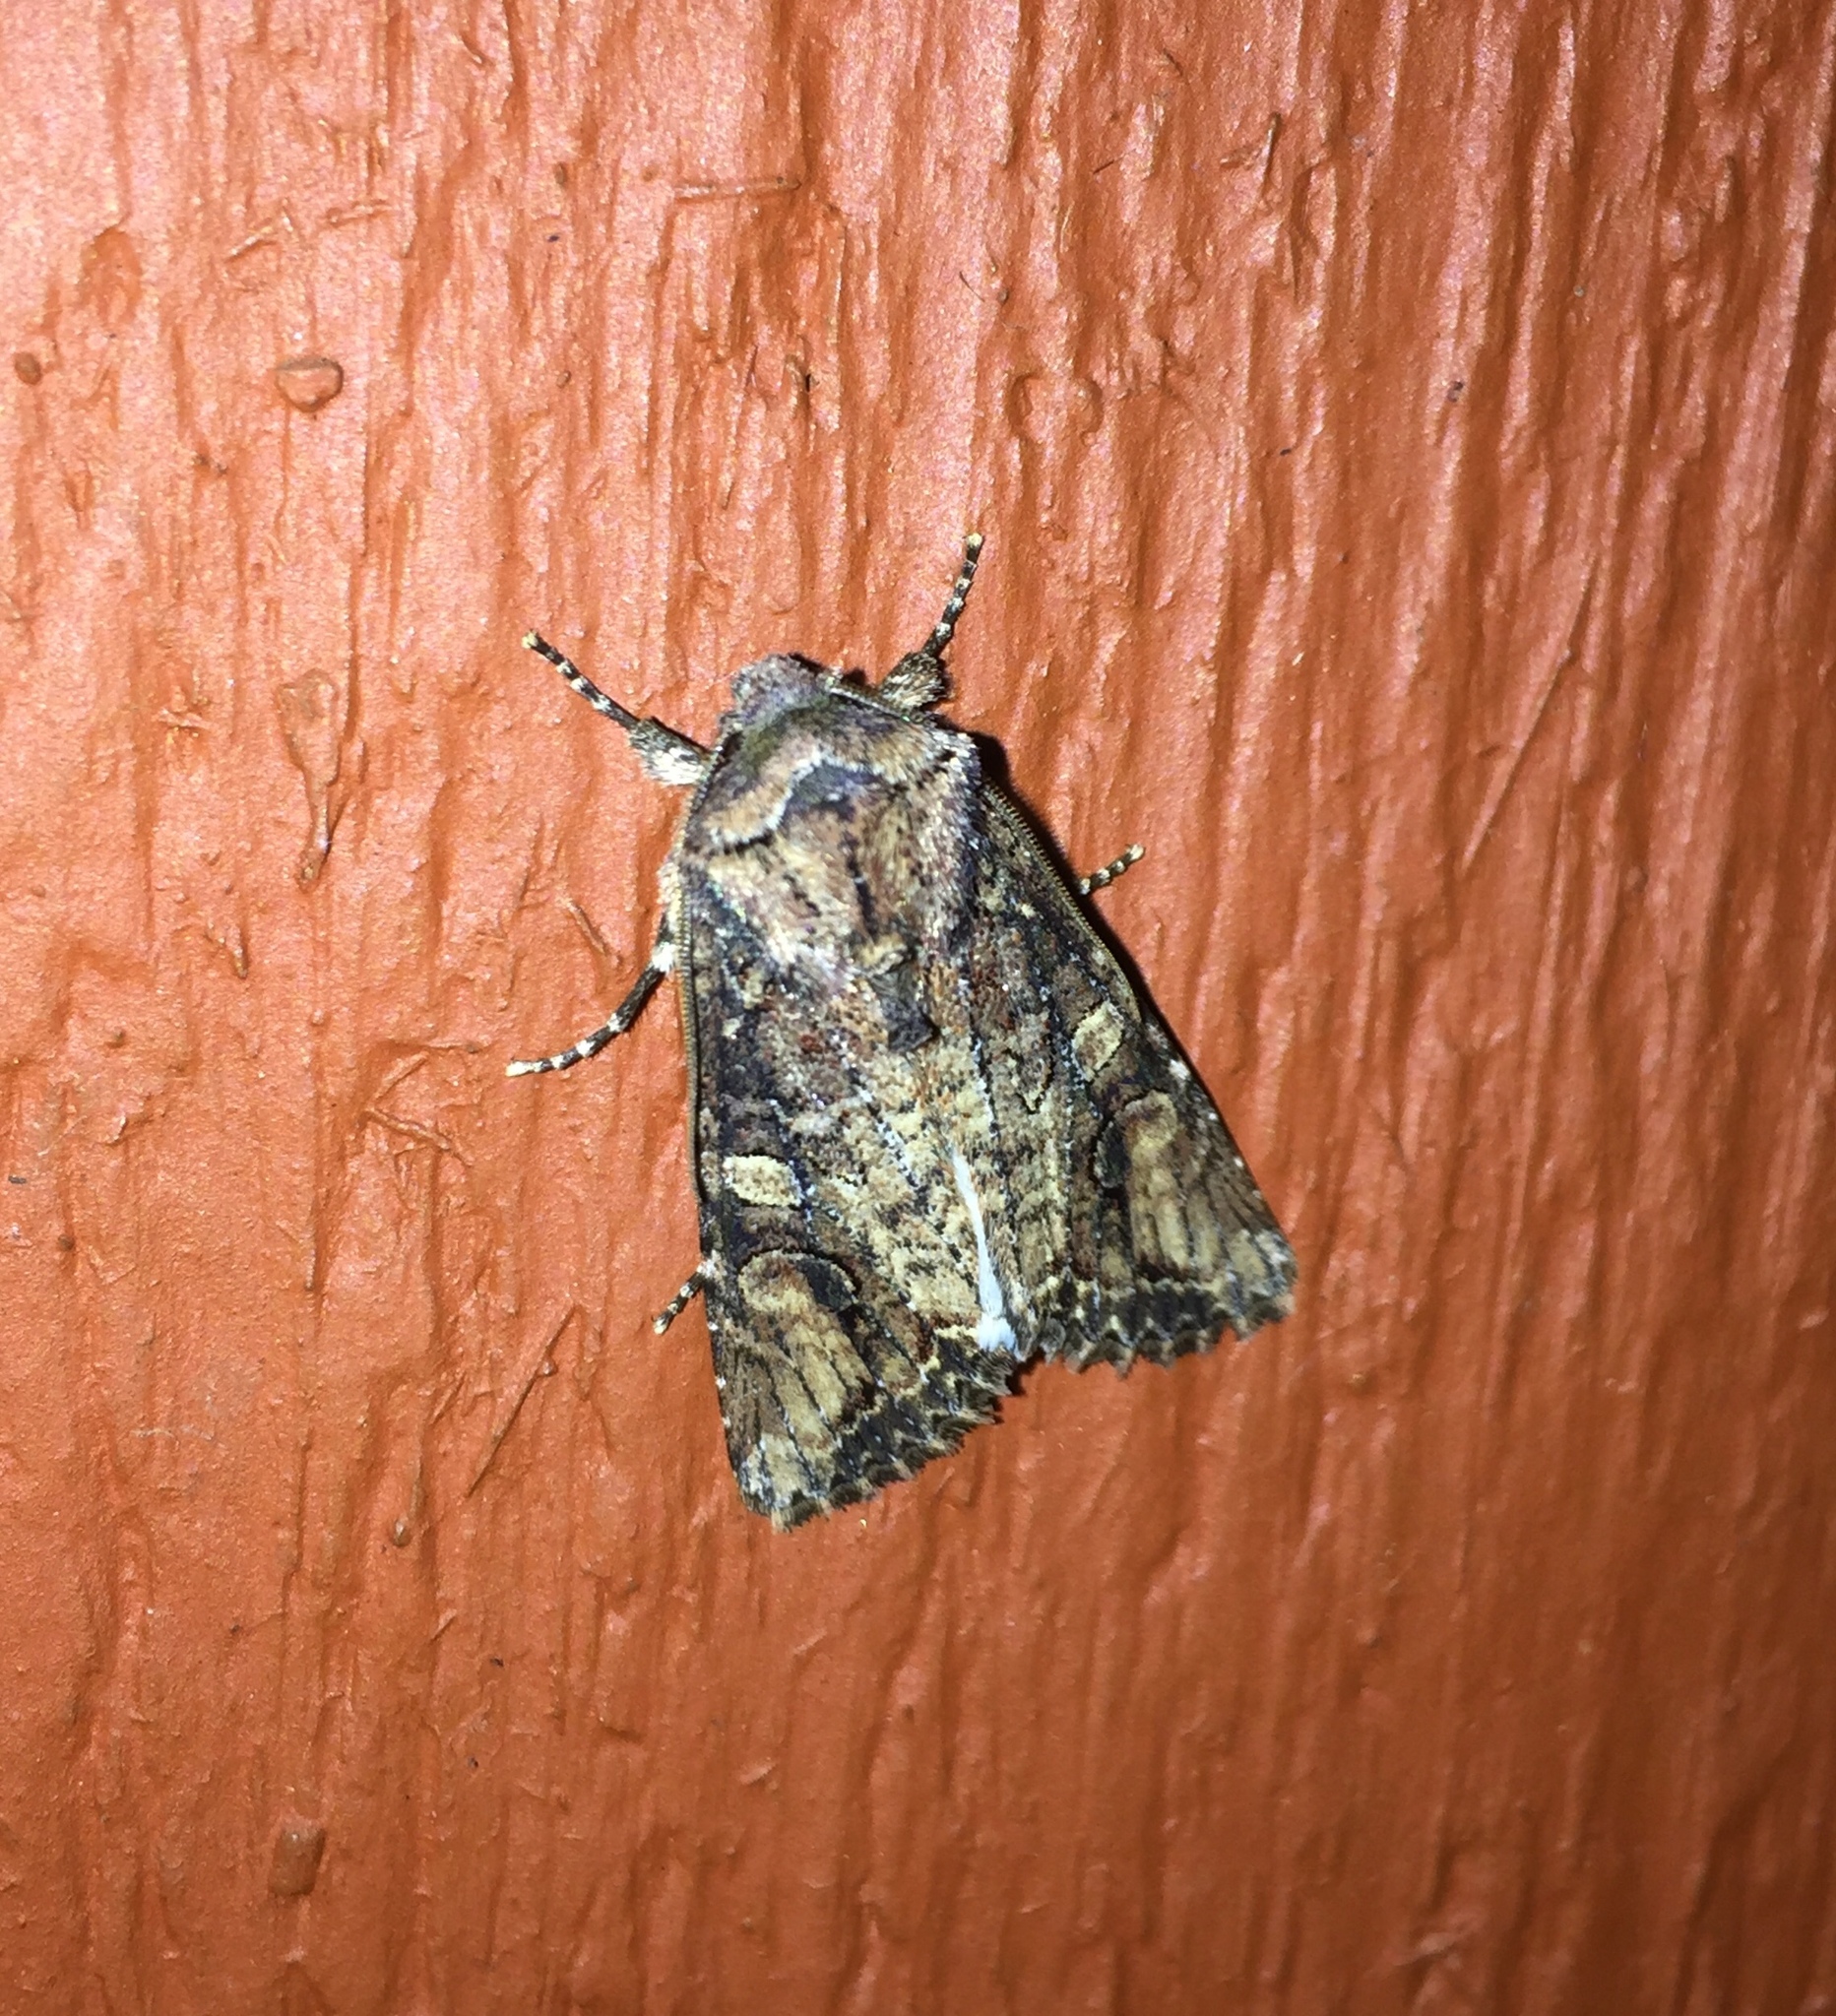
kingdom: Animalia
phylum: Arthropoda
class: Insecta
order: Lepidoptera
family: Noctuidae
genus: Egira
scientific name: Egira perlubens
